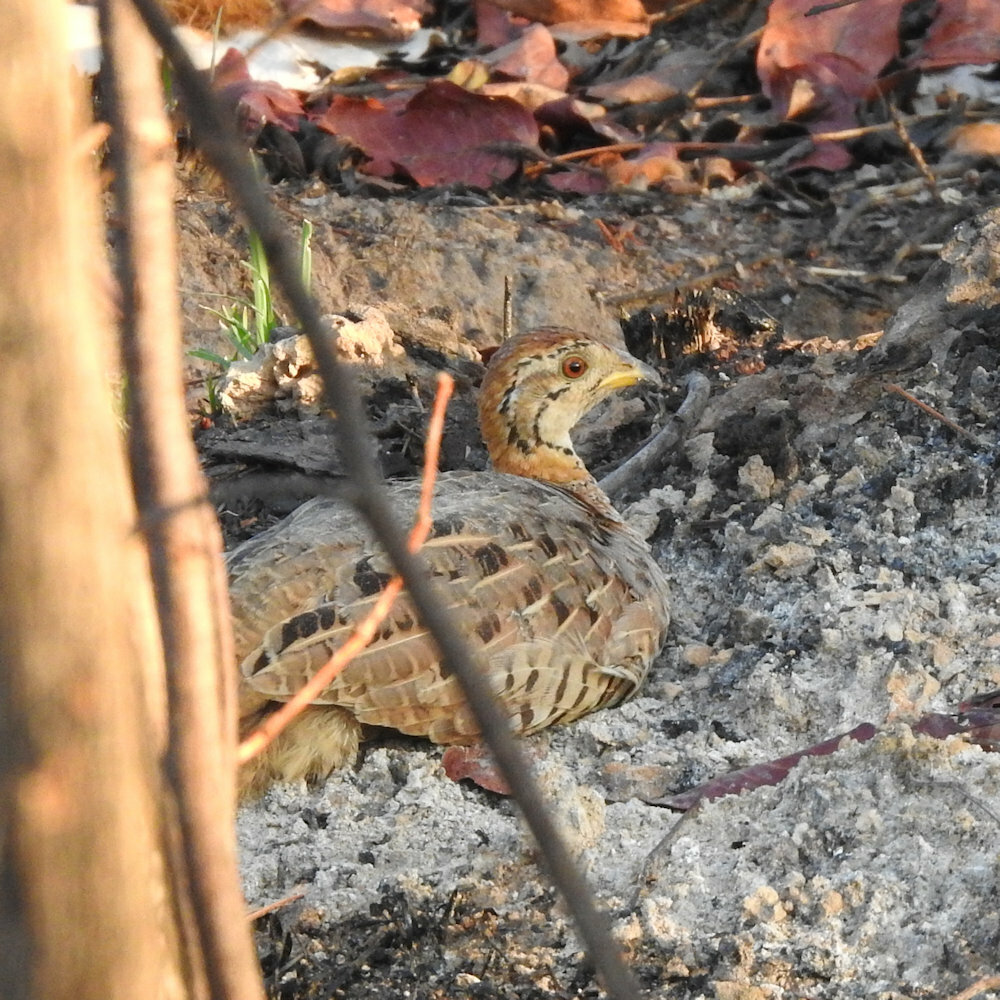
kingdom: Animalia
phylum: Chordata
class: Aves
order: Galliformes
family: Phasianidae
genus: Campocolinus
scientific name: Campocolinus coqui
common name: Coqui francolin
